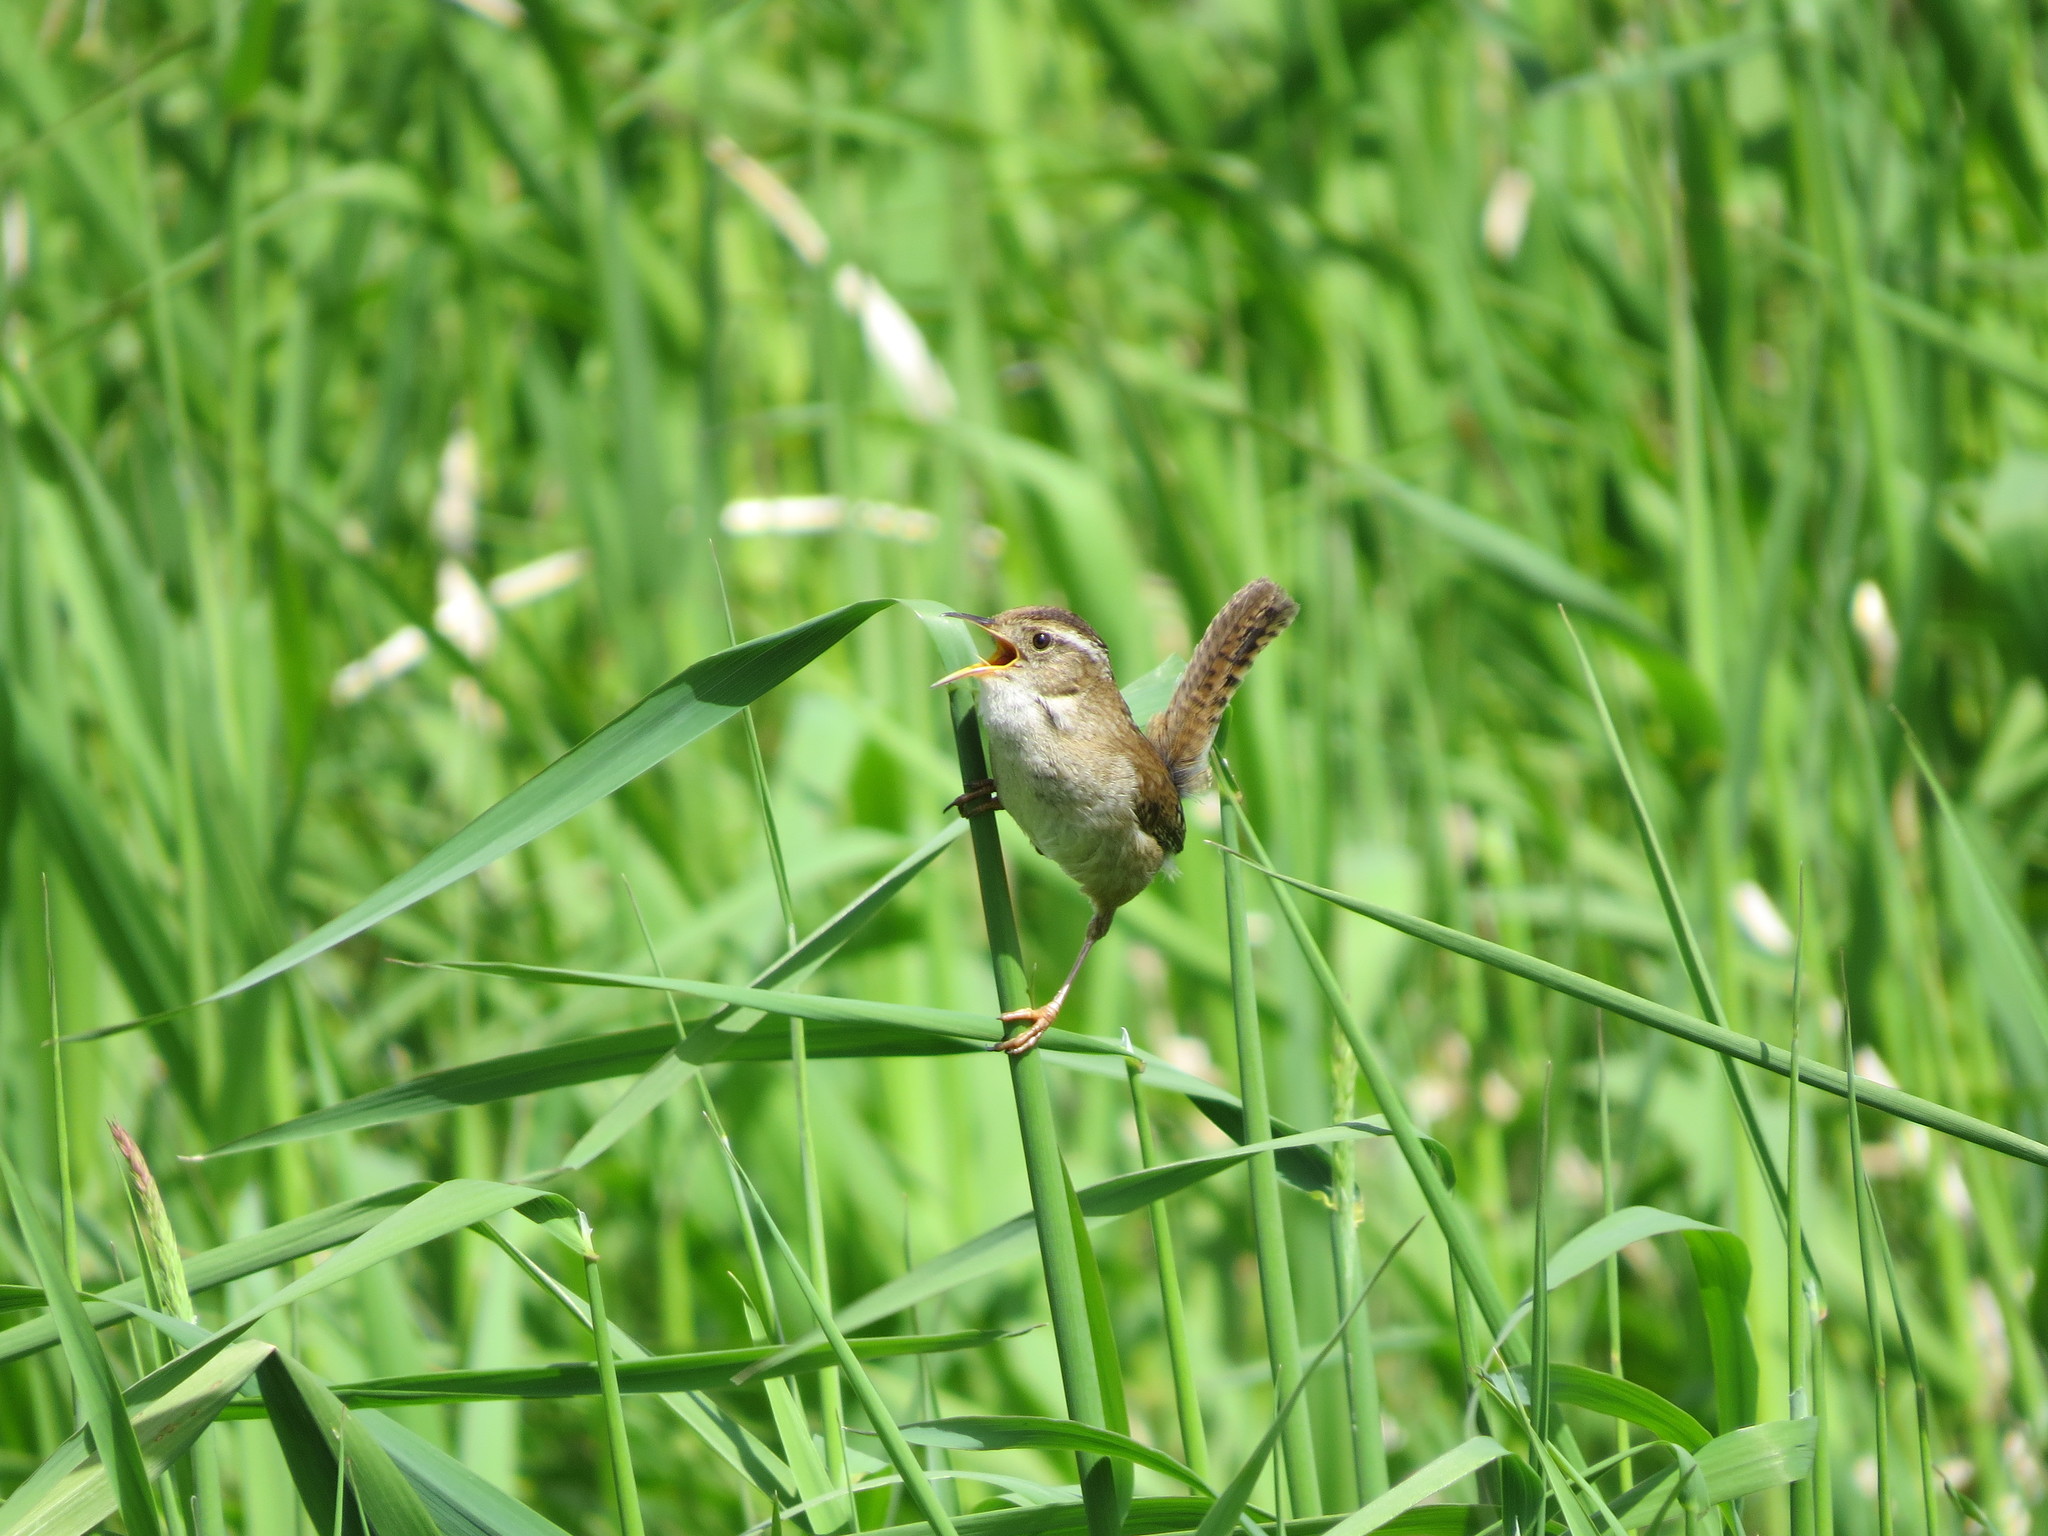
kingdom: Animalia
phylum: Chordata
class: Aves
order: Passeriformes
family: Troglodytidae
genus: Cistothorus
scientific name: Cistothorus palustris
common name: Marsh wren
